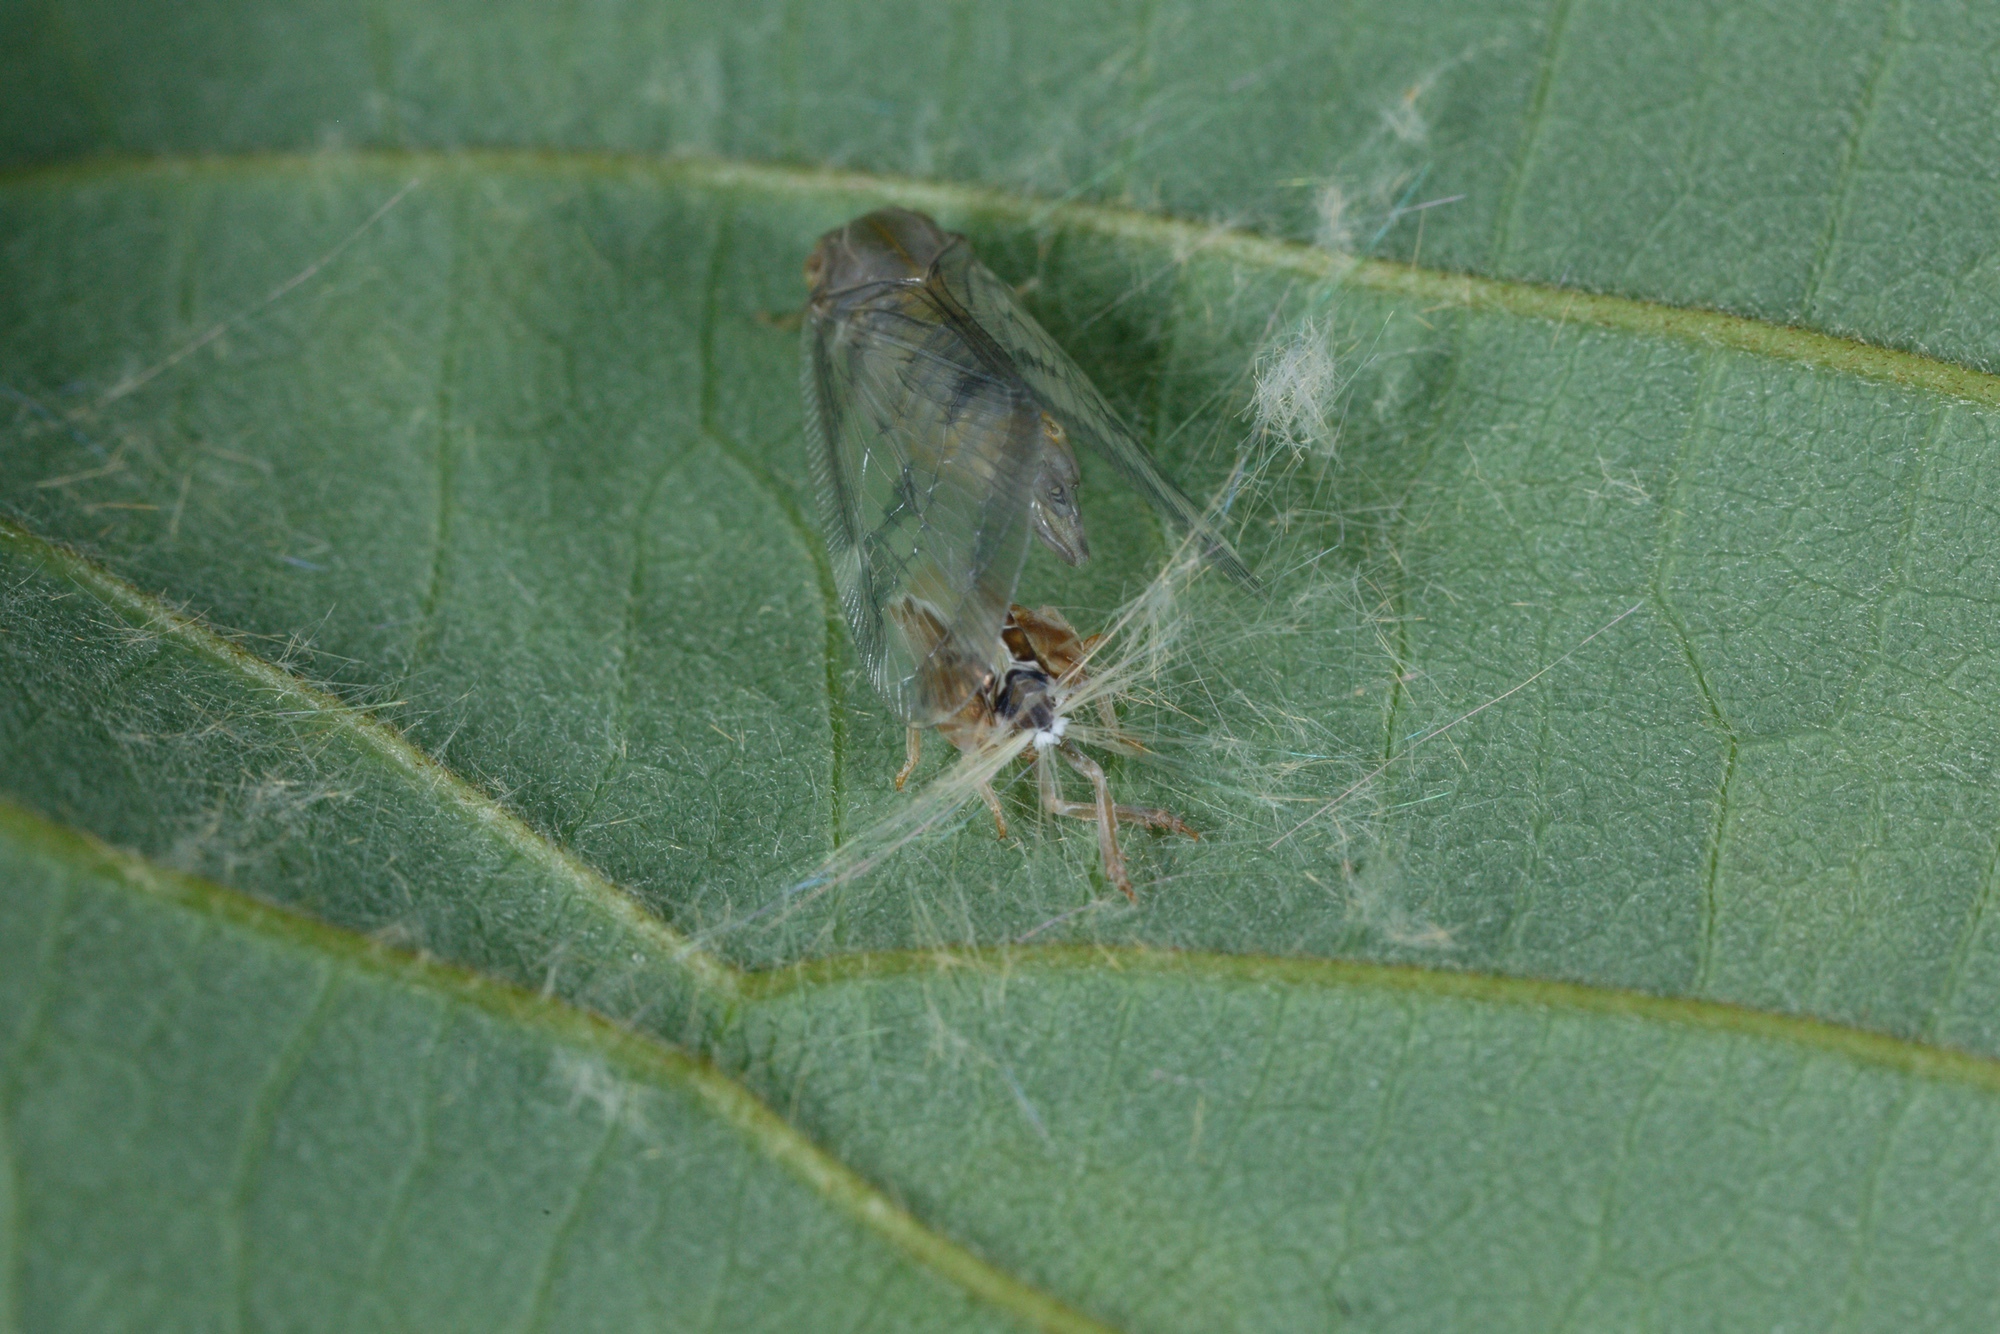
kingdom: Animalia
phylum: Arthropoda
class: Insecta
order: Hemiptera
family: Ricaniidae
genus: Scolypopa
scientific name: Scolypopa australis
